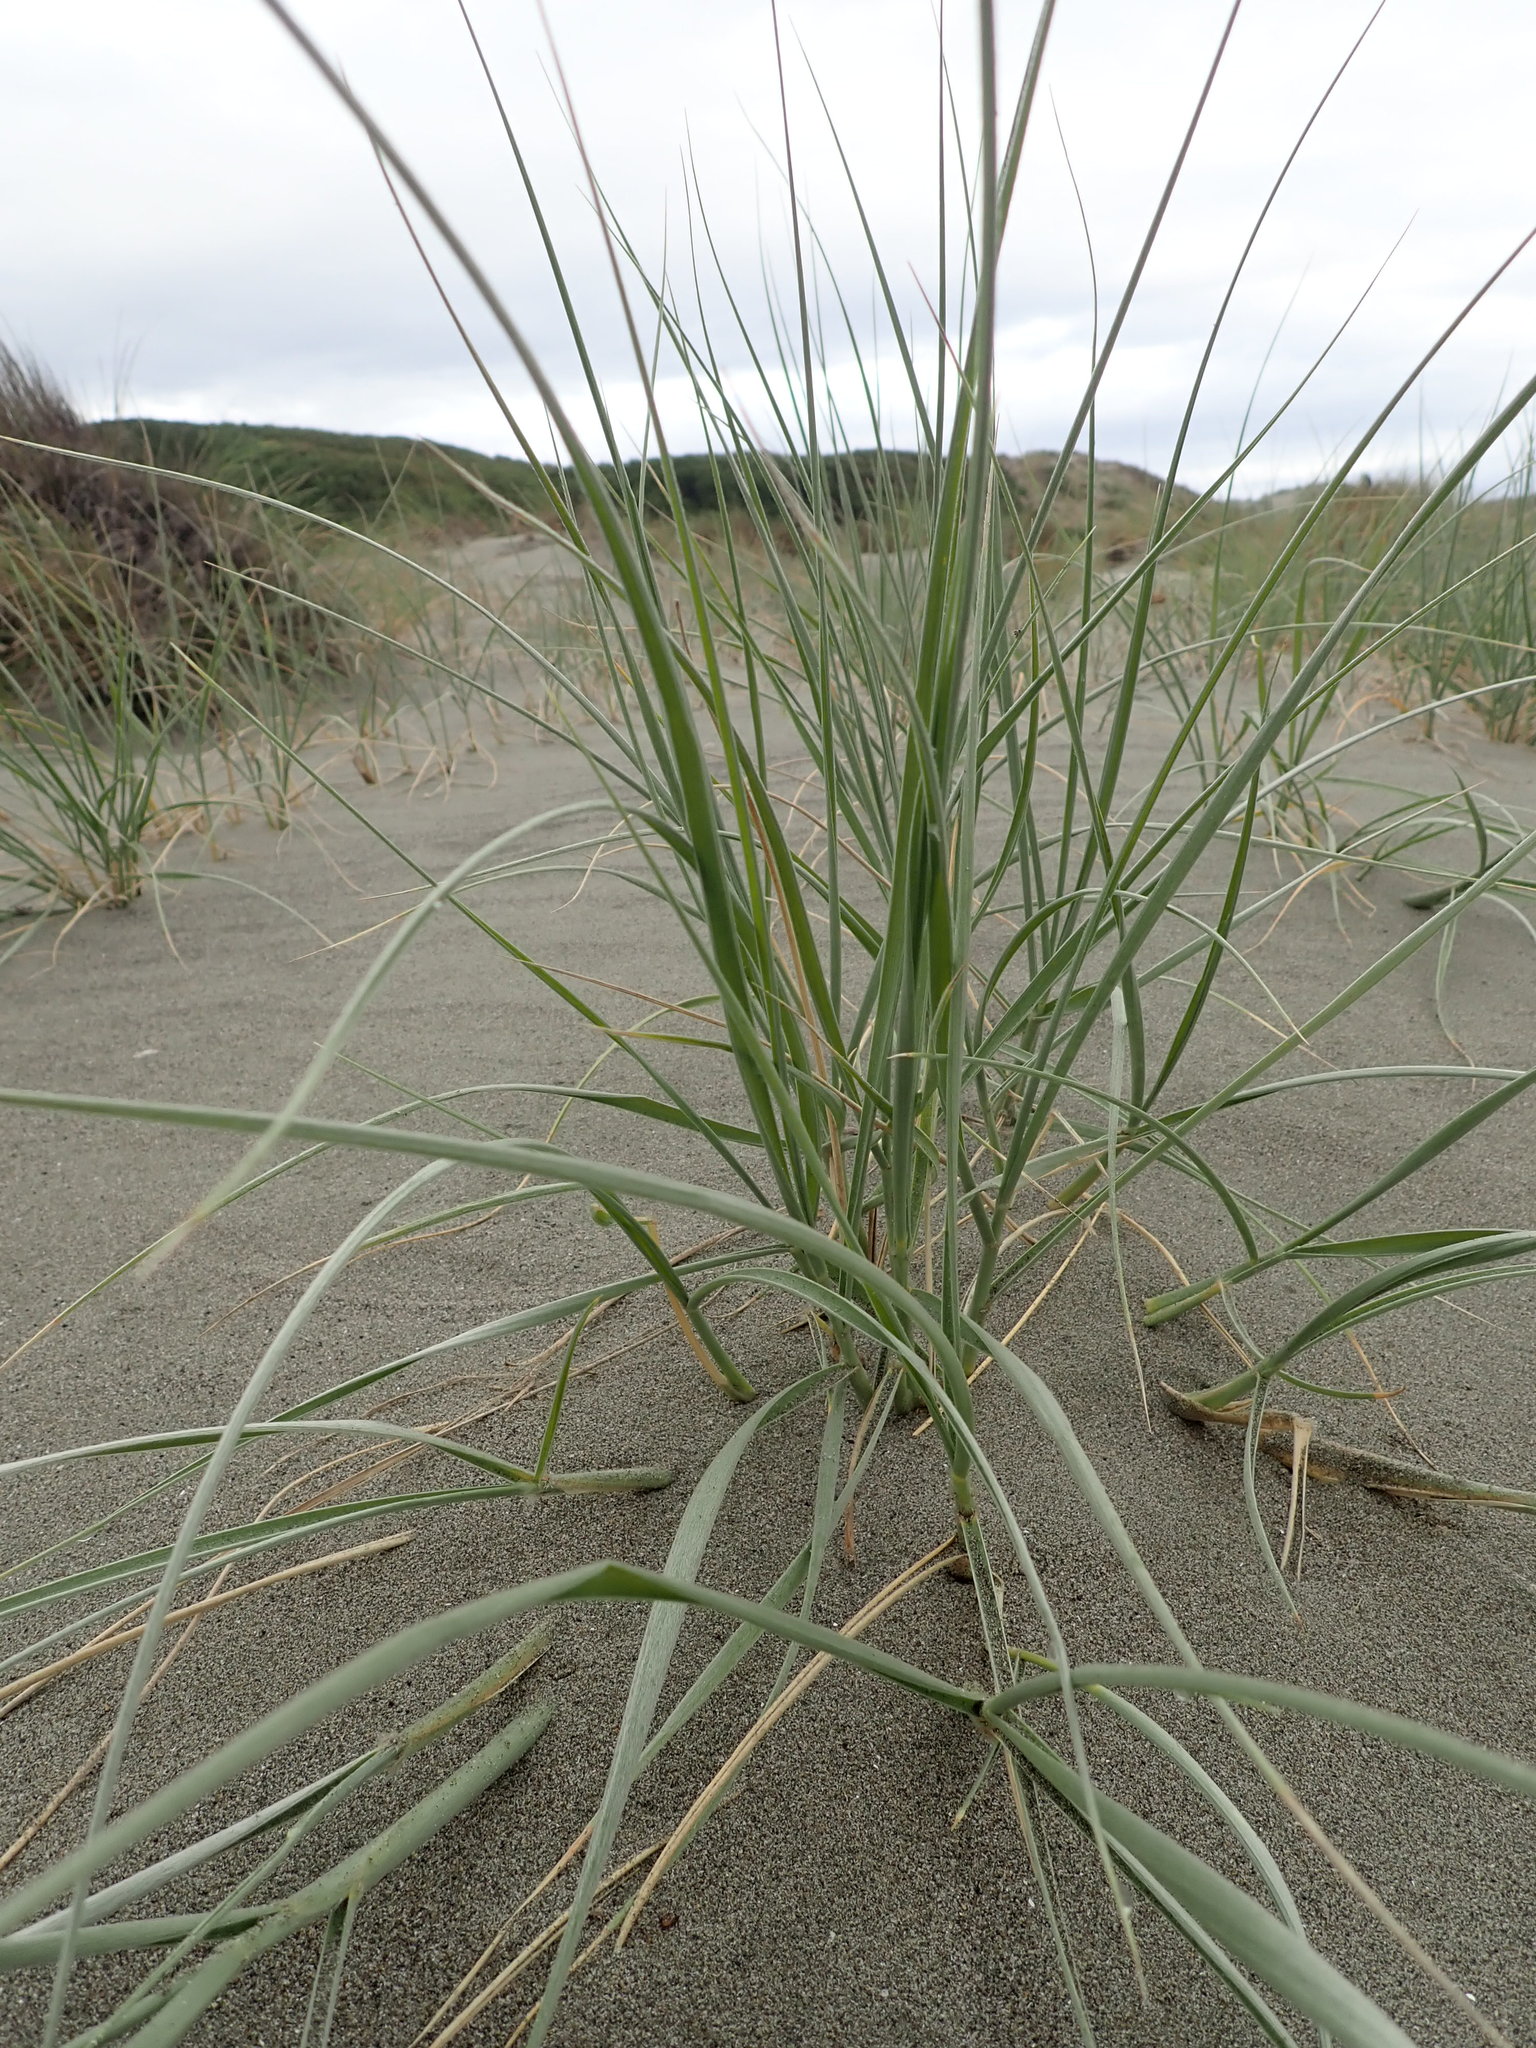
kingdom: Plantae
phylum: Tracheophyta
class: Liliopsida
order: Poales
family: Poaceae
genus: Spinifex
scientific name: Spinifex sericeus
